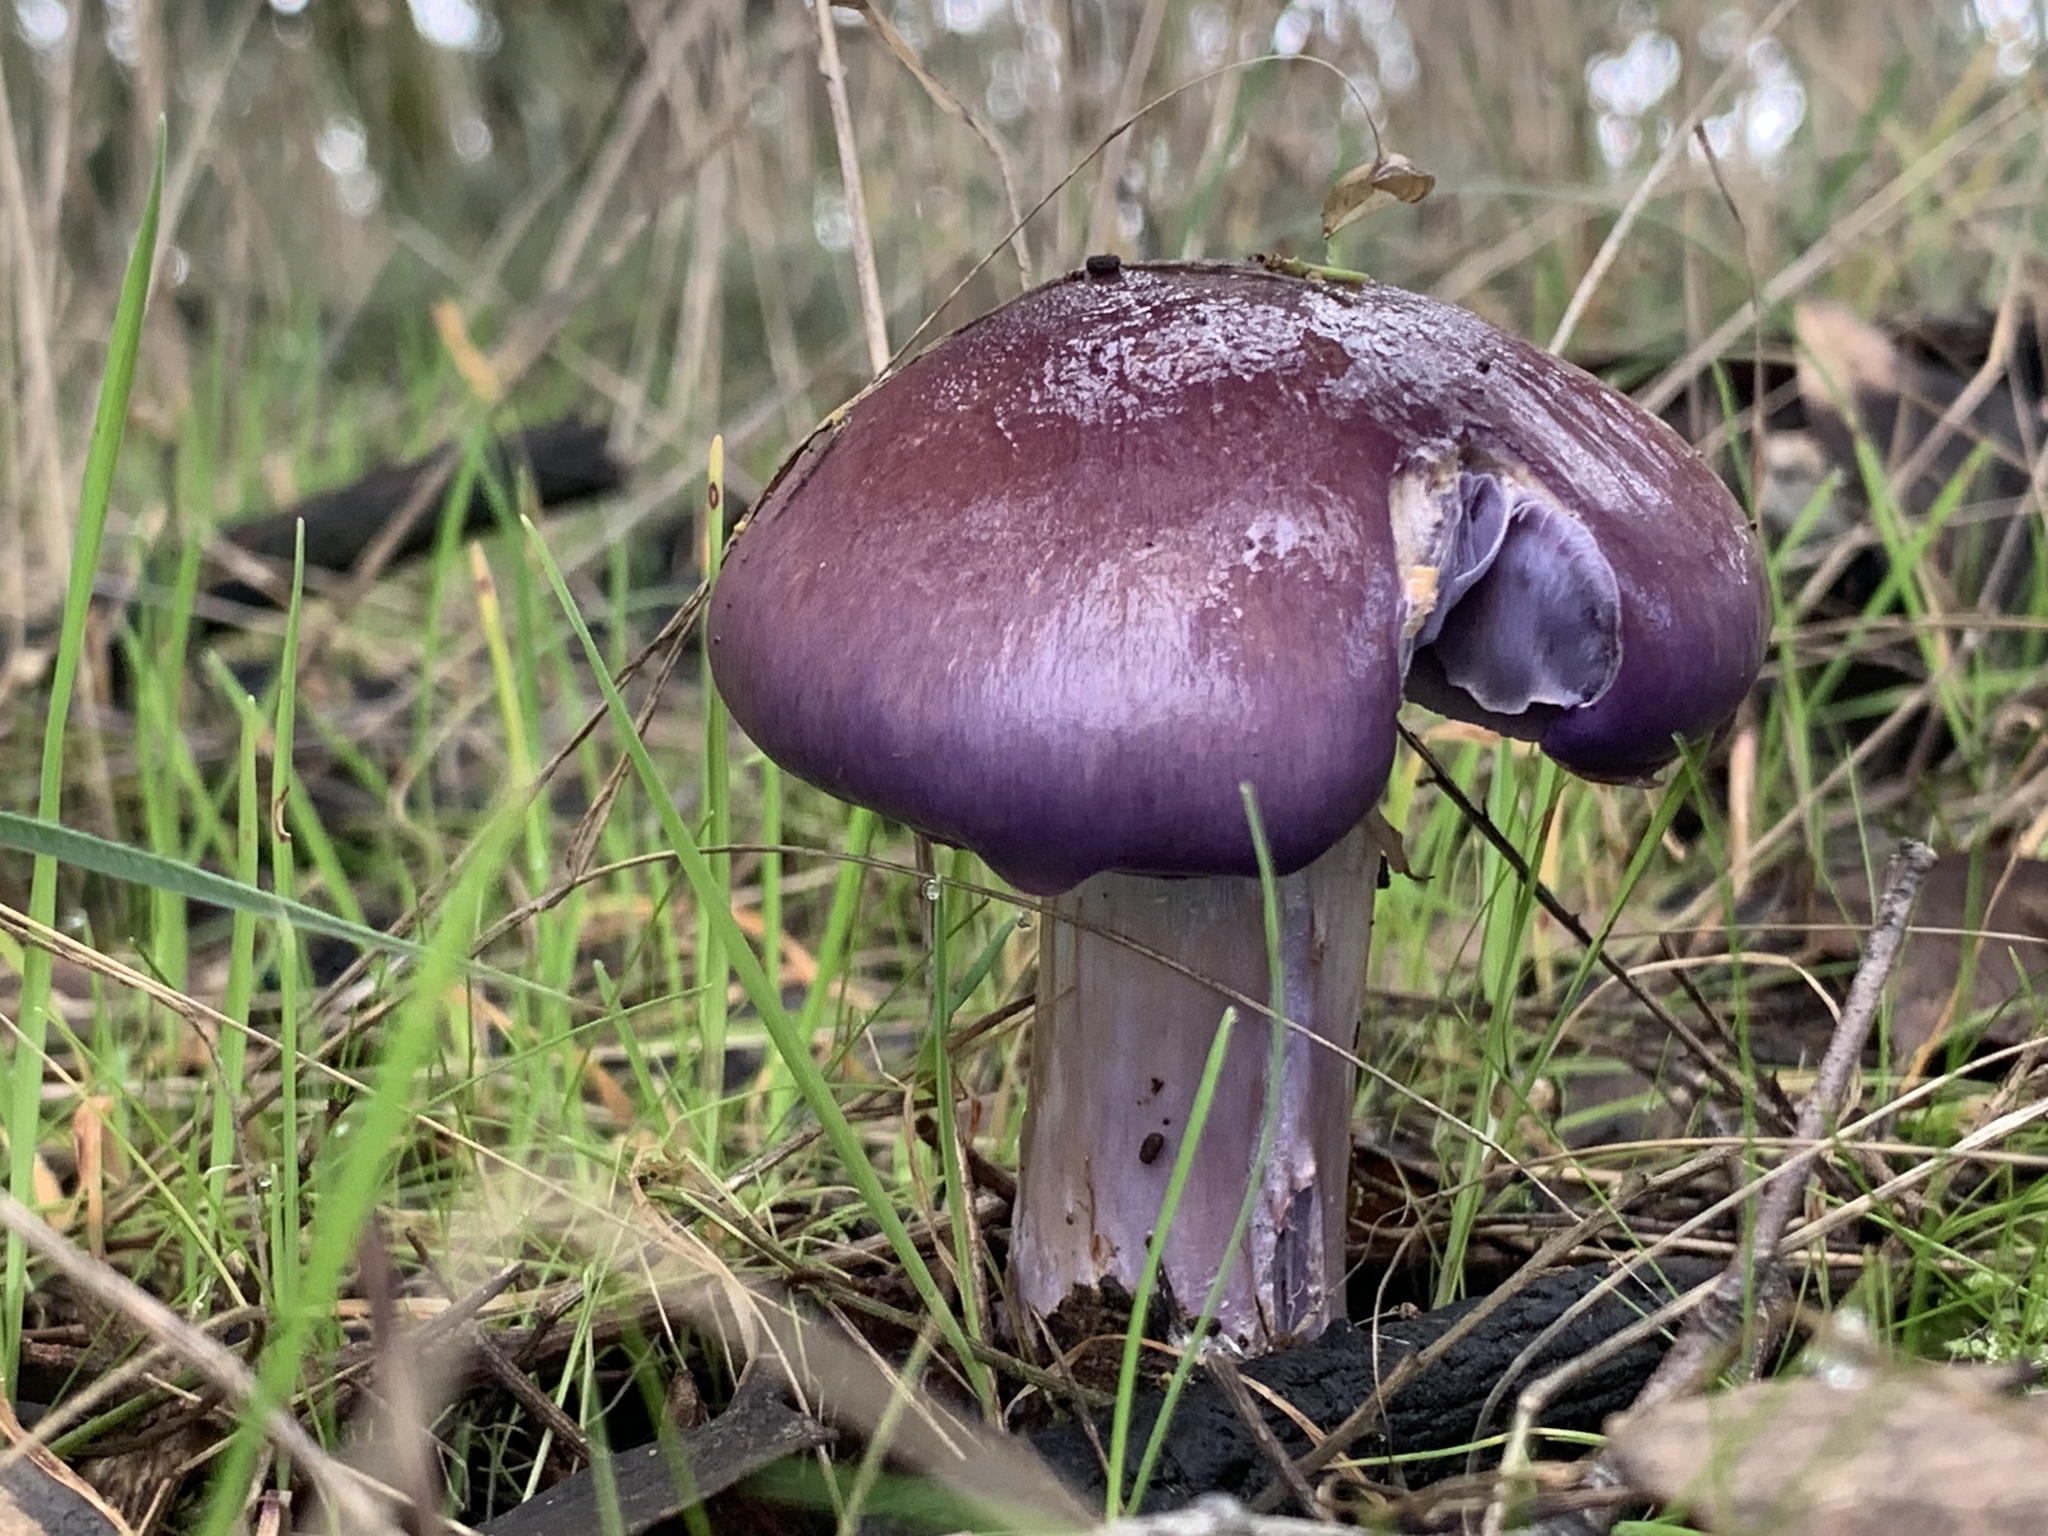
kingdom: Fungi
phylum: Basidiomycota
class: Agaricomycetes
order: Agaricales
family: Cortinariaceae
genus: Cortinarius
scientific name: Cortinarius archeri
